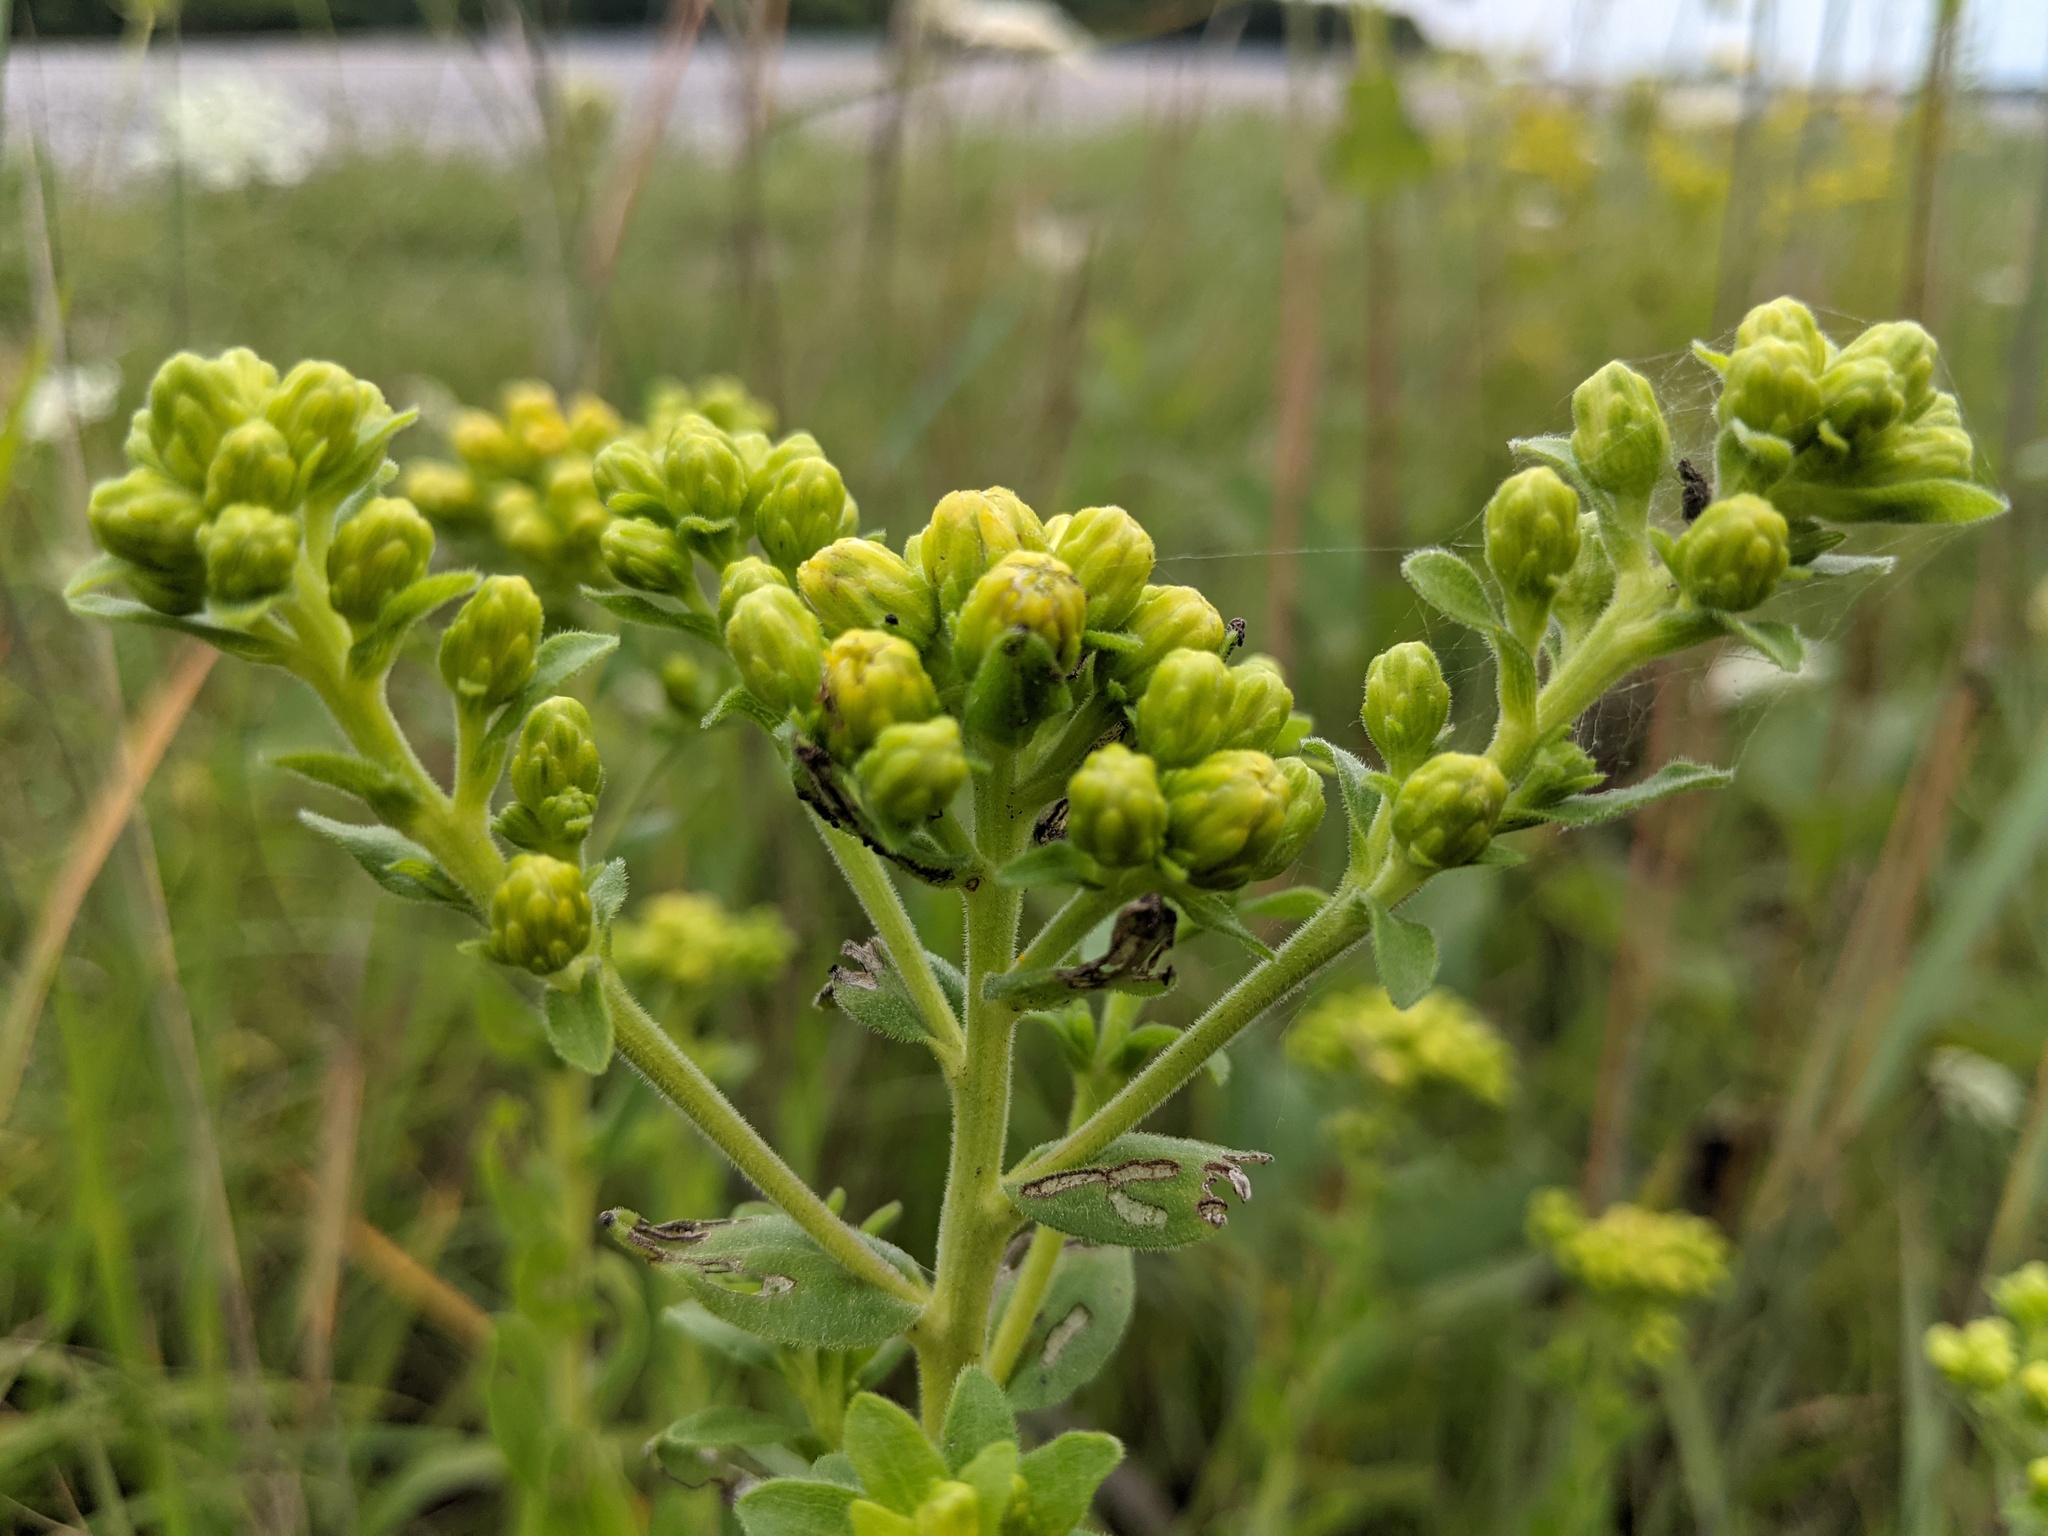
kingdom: Plantae
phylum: Tracheophyta
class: Magnoliopsida
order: Asterales
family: Asteraceae
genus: Solidago
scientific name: Solidago rigida
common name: Rigid goldenrod
